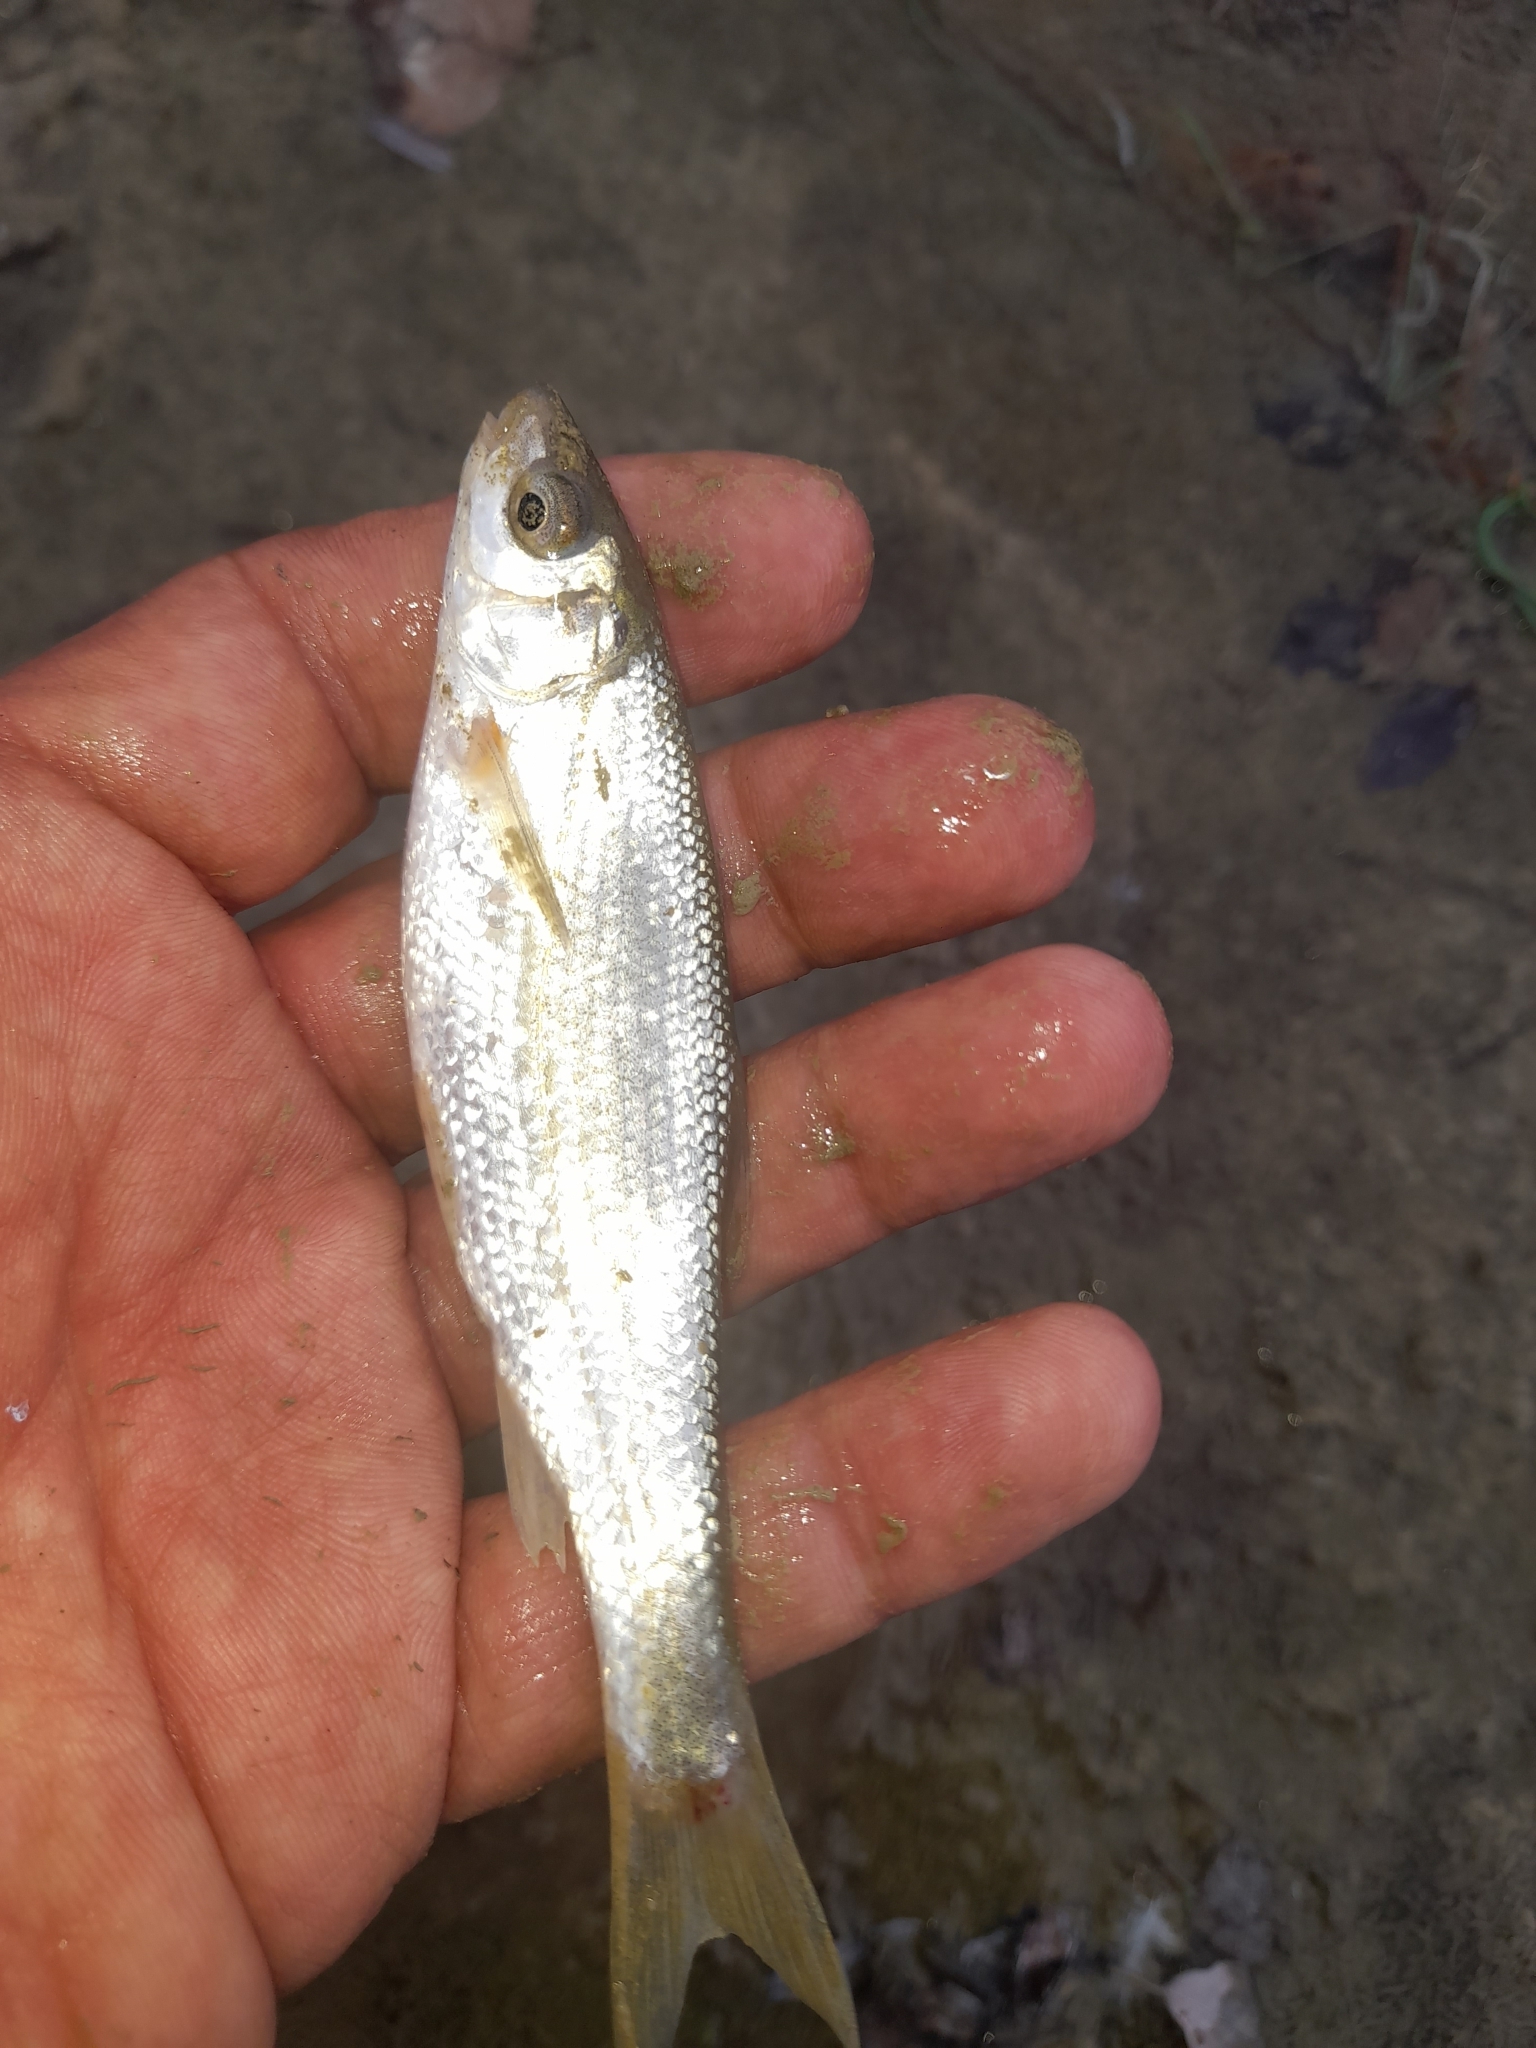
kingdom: Animalia
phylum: Chordata
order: Cypriniformes
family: Cyprinidae
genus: Protochondrostoma
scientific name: Protochondrostoma genei
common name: South european nase
